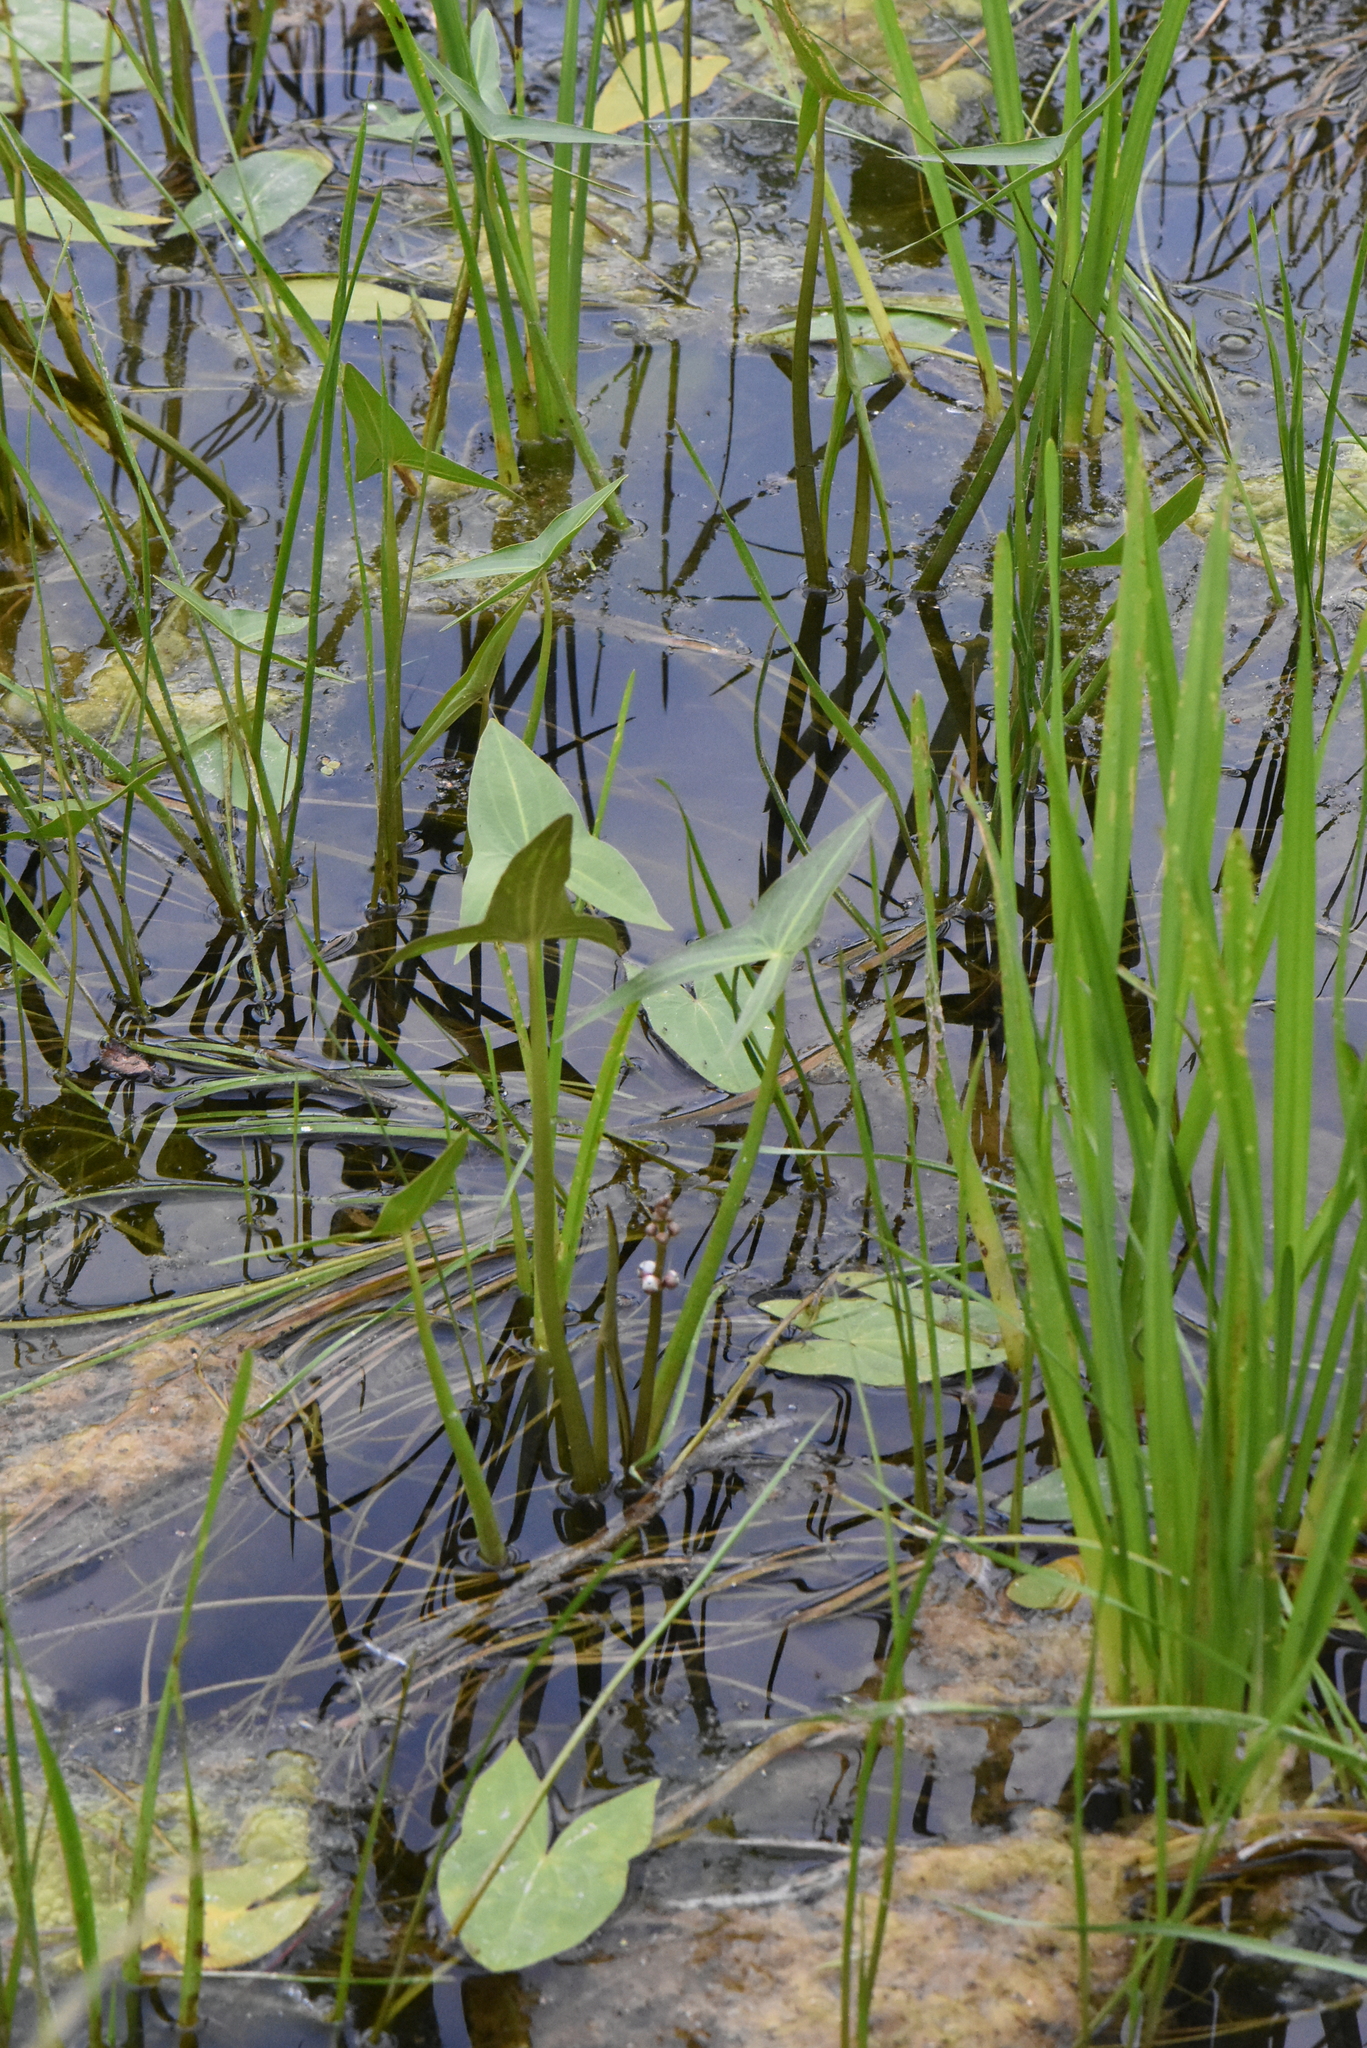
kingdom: Plantae
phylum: Tracheophyta
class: Liliopsida
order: Alismatales
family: Alismataceae
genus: Sagittaria
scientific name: Sagittaria sagittifolia
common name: Arrowhead
